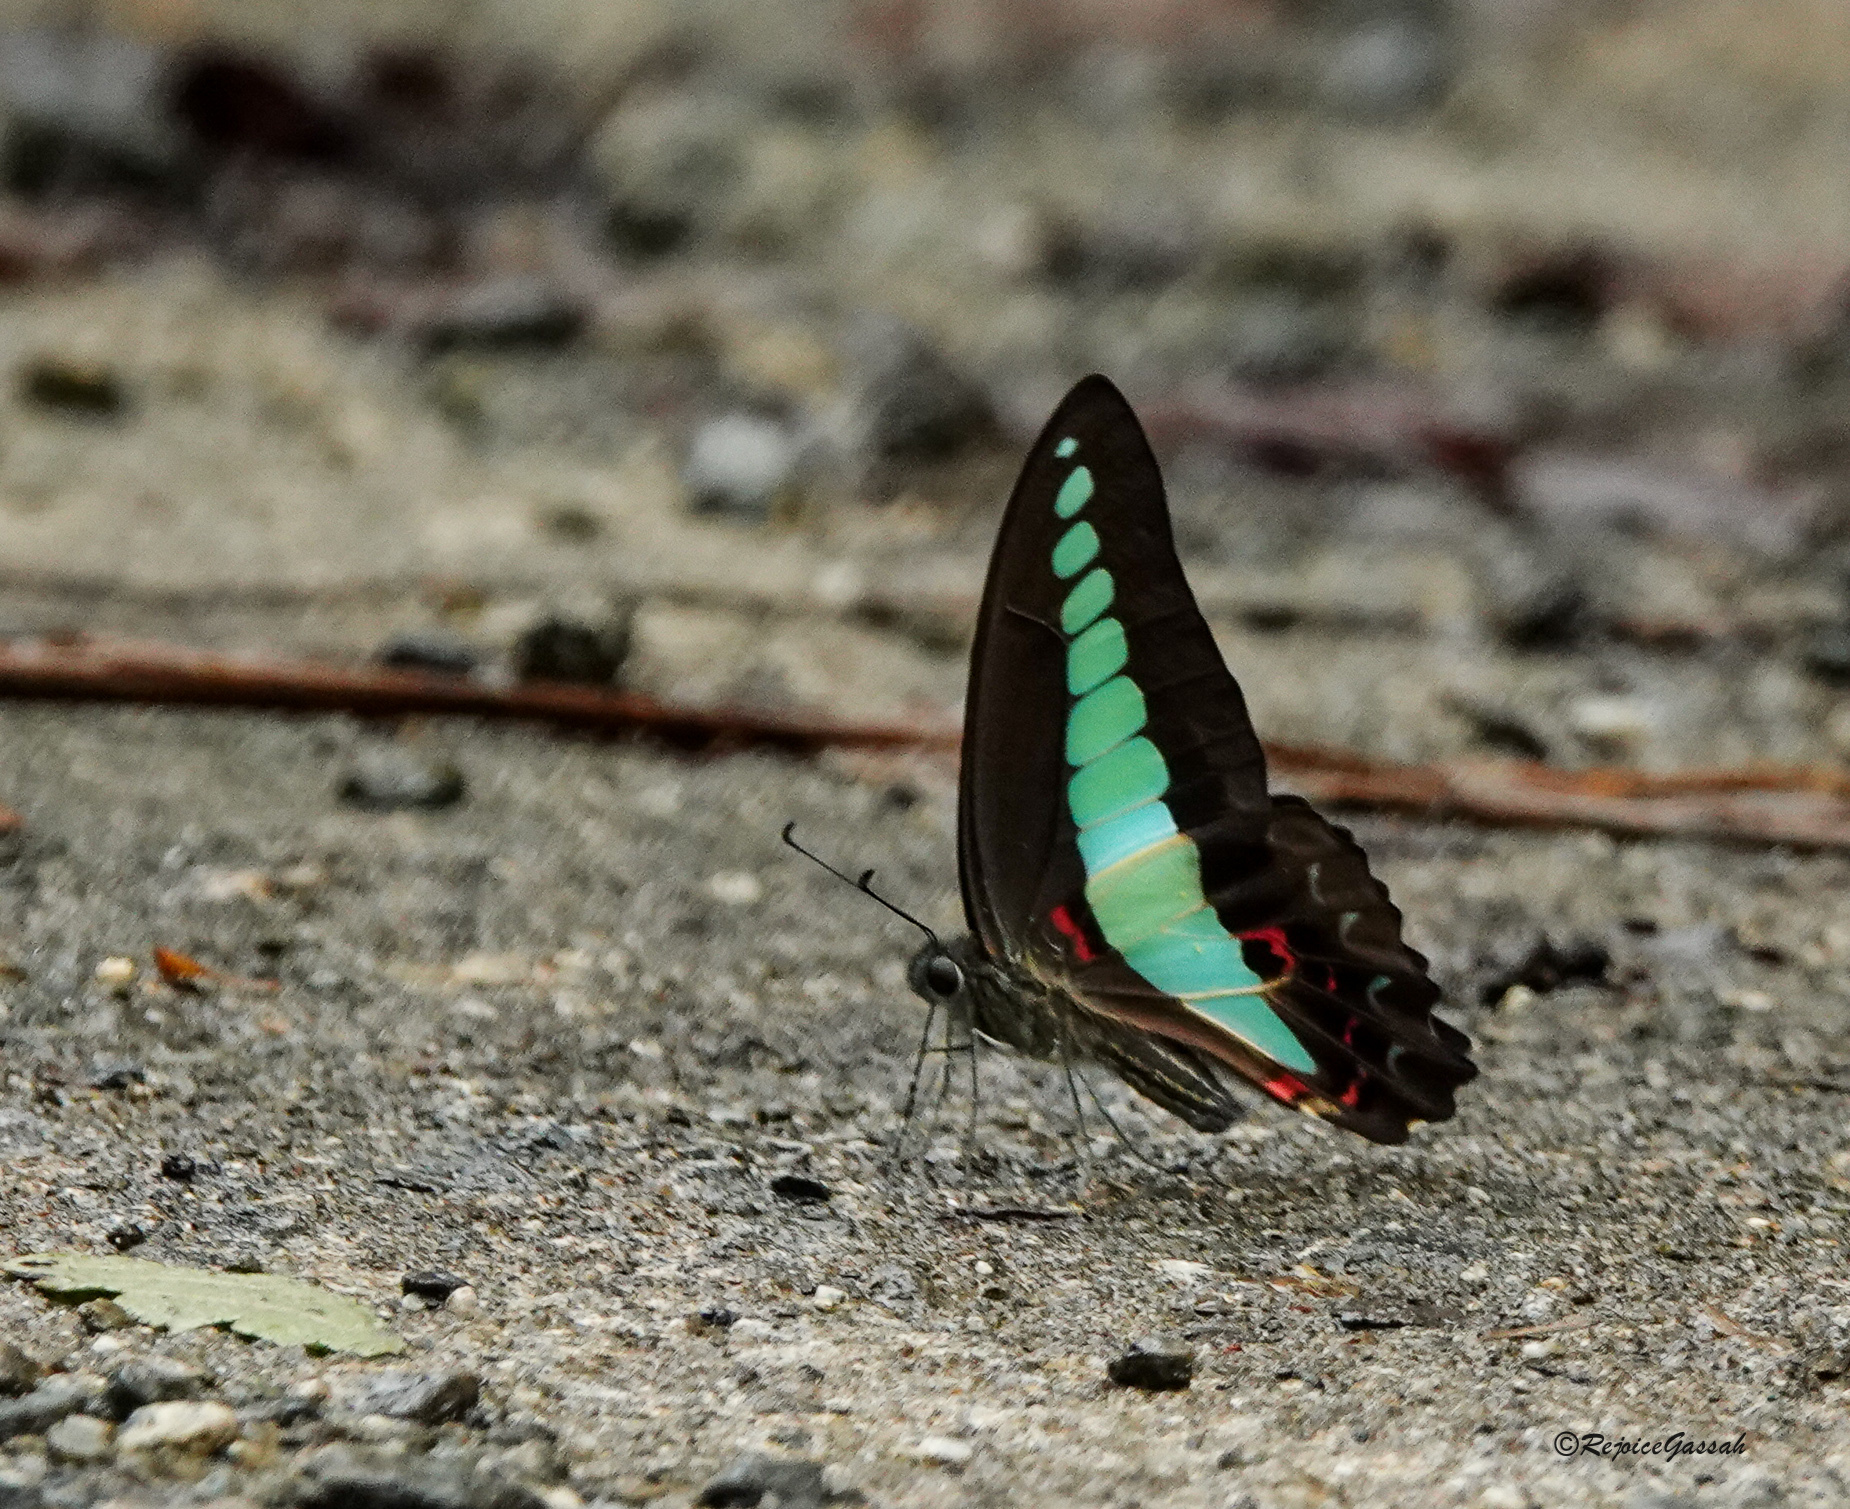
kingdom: Fungi
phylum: Ascomycota
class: Sordariomycetes
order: Microascales
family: Microascaceae
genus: Graphium
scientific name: Graphium sarpedon
